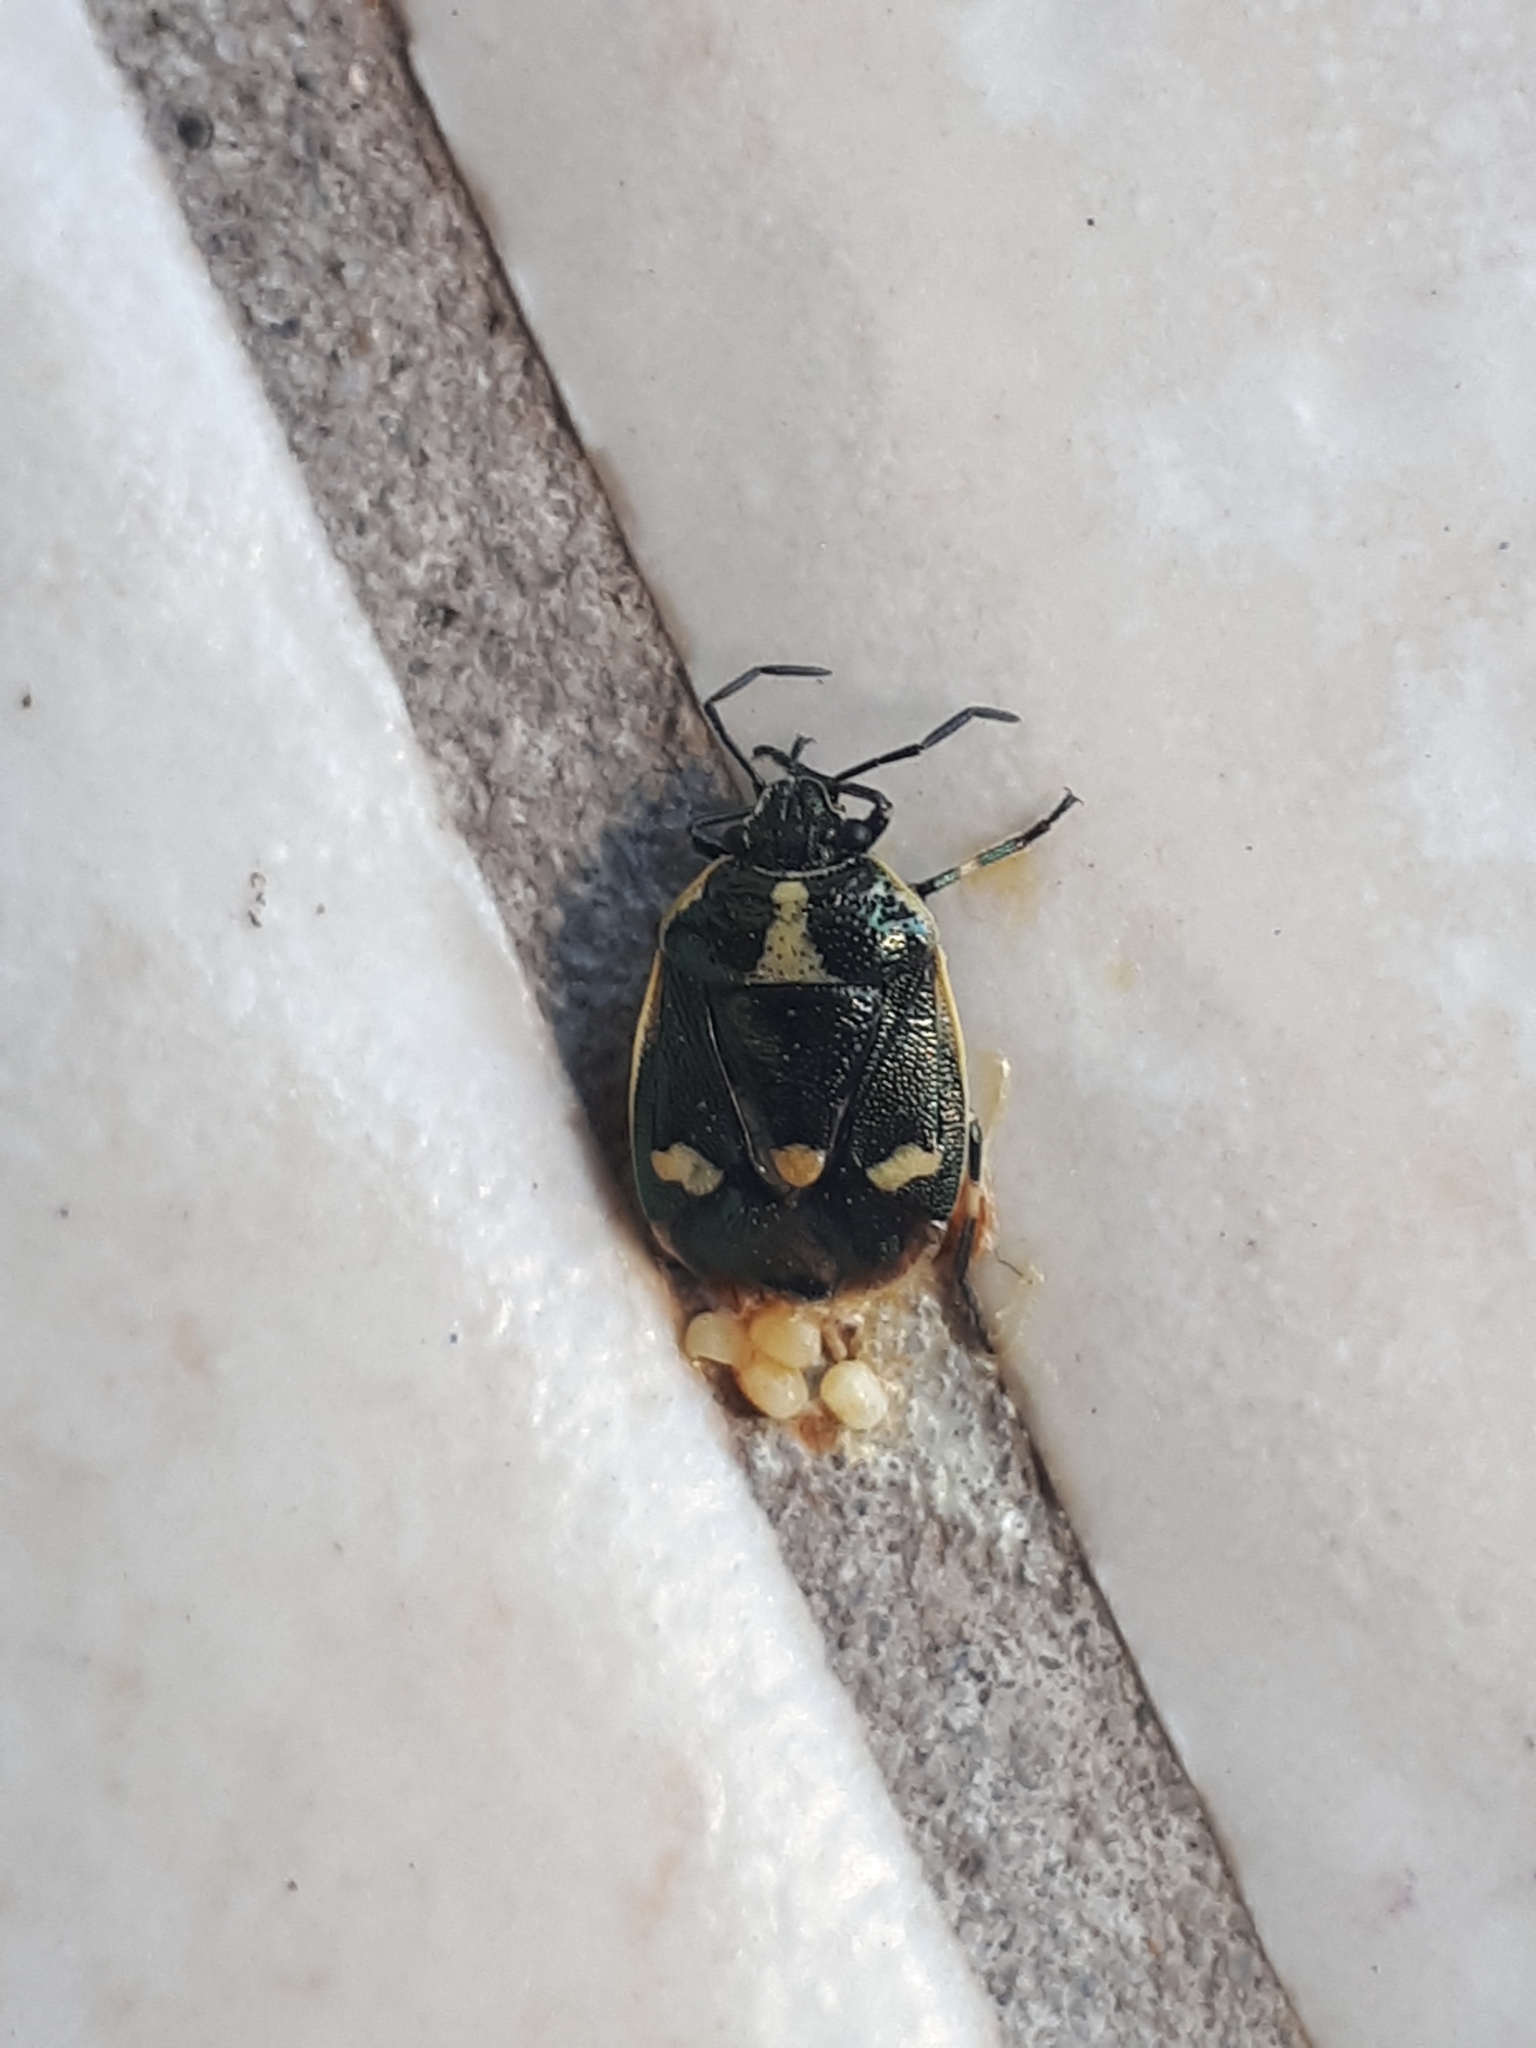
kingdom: Animalia
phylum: Arthropoda
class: Insecta
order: Hemiptera
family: Pentatomidae
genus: Eurydema
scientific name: Eurydema oleracea
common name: Cabbage bug
